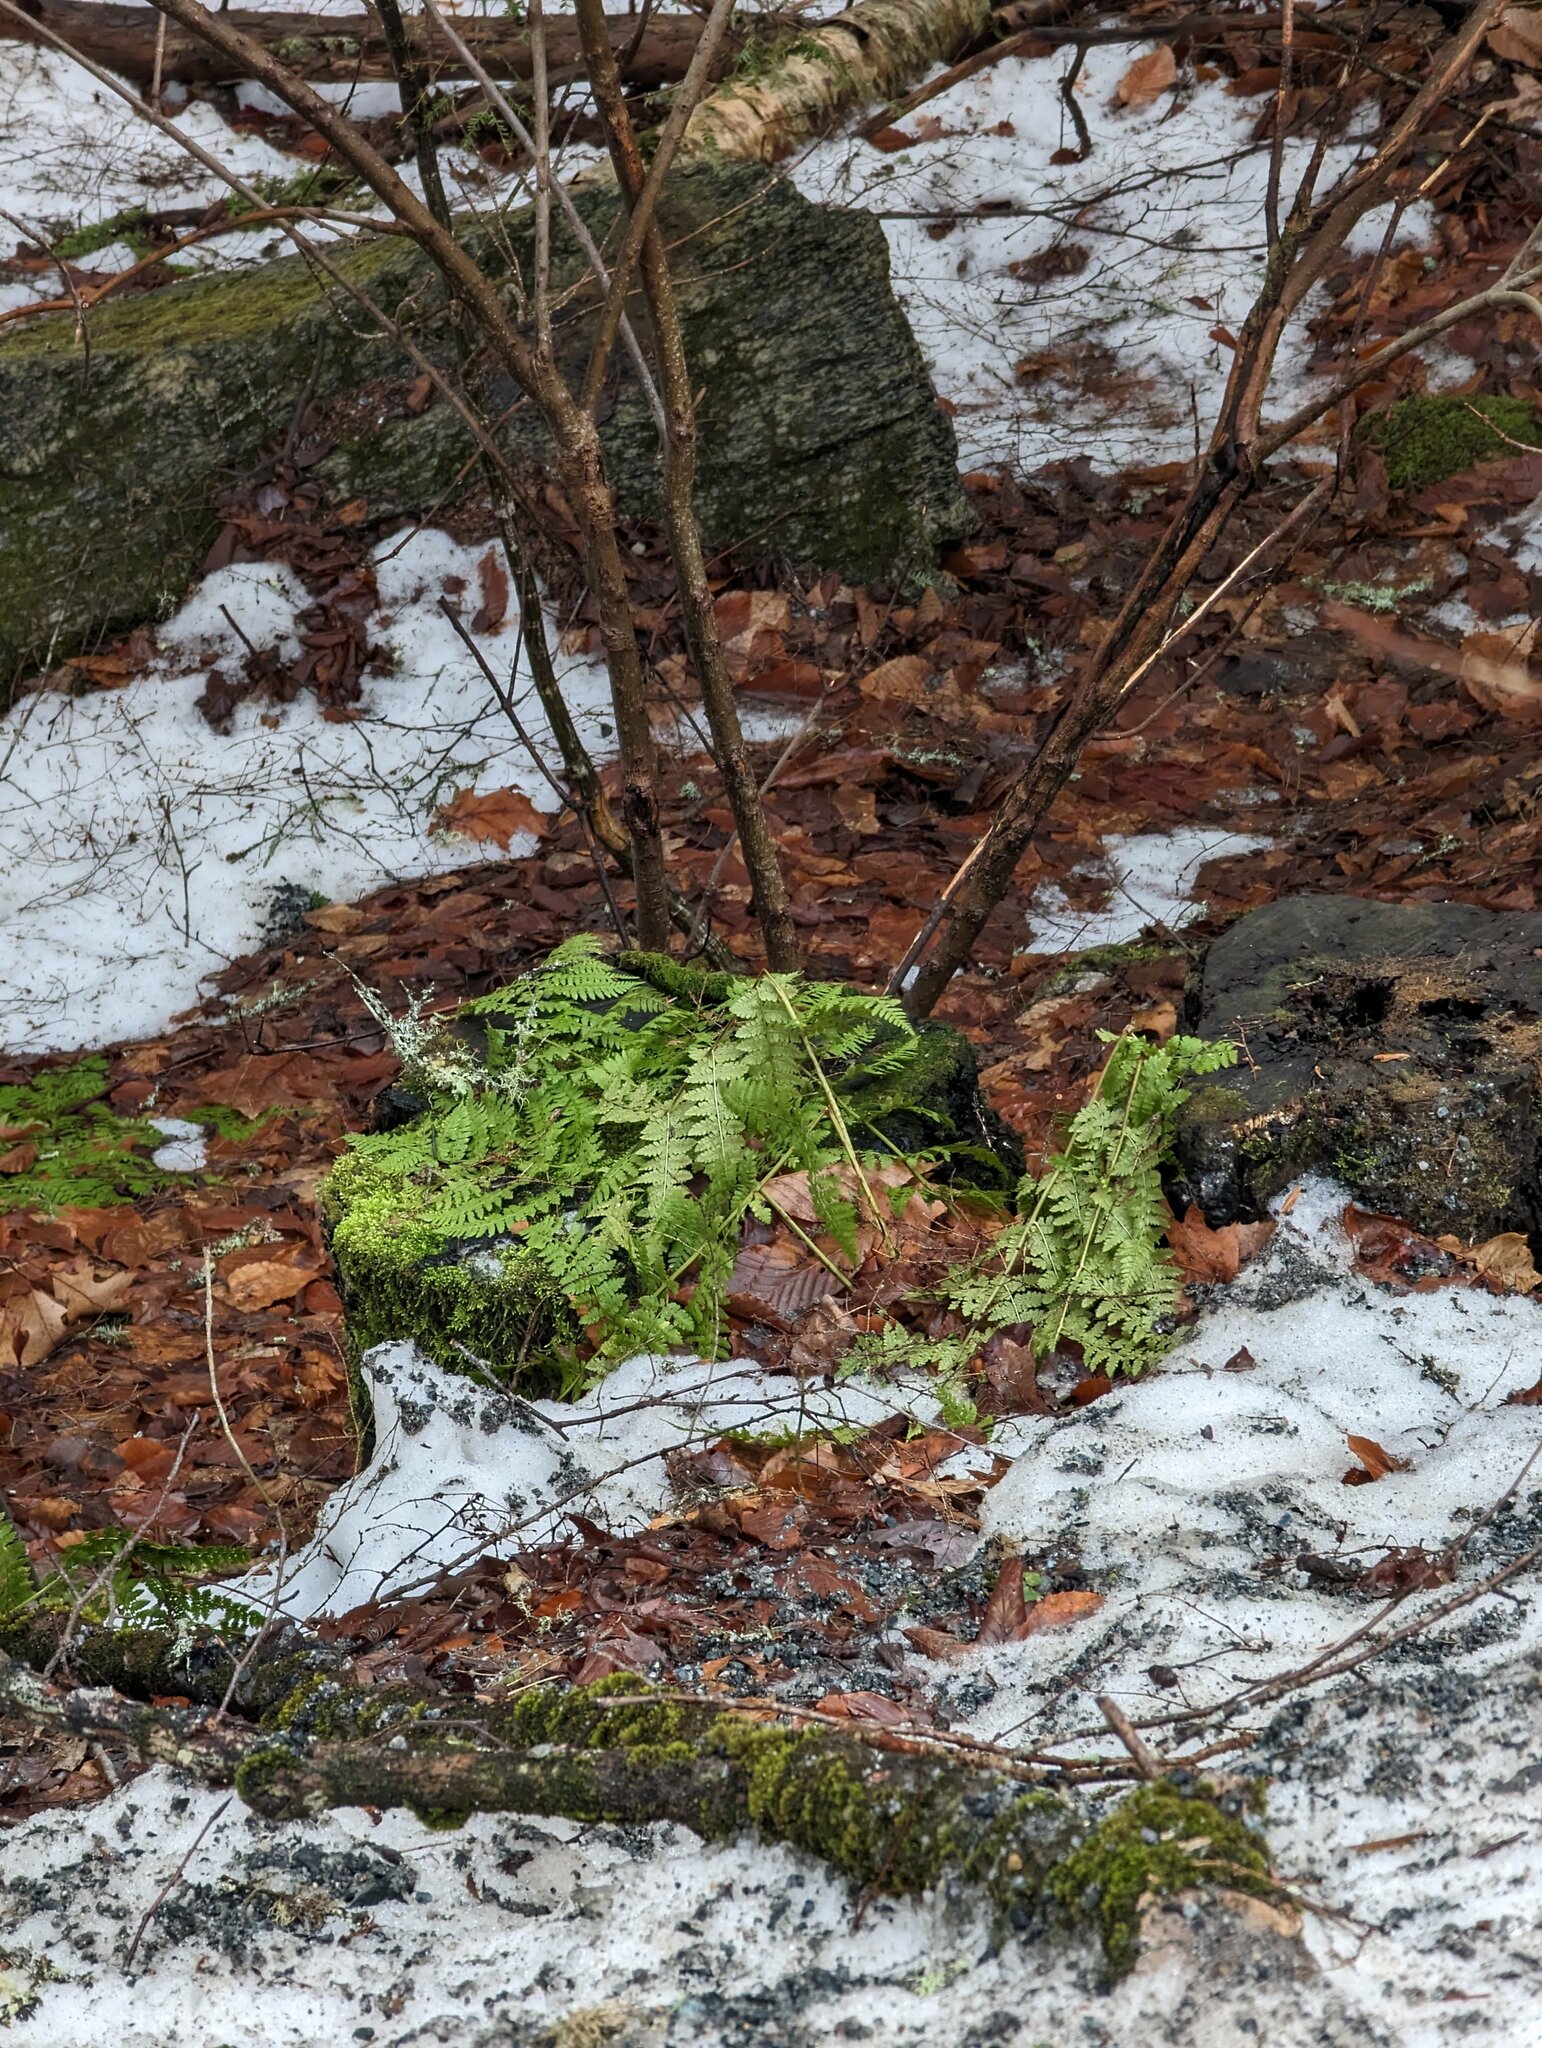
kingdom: Plantae
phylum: Tracheophyta
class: Polypodiopsida
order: Polypodiales
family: Dryopteridaceae
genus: Dryopteris
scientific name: Dryopteris intermedia
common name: Evergreen wood fern
